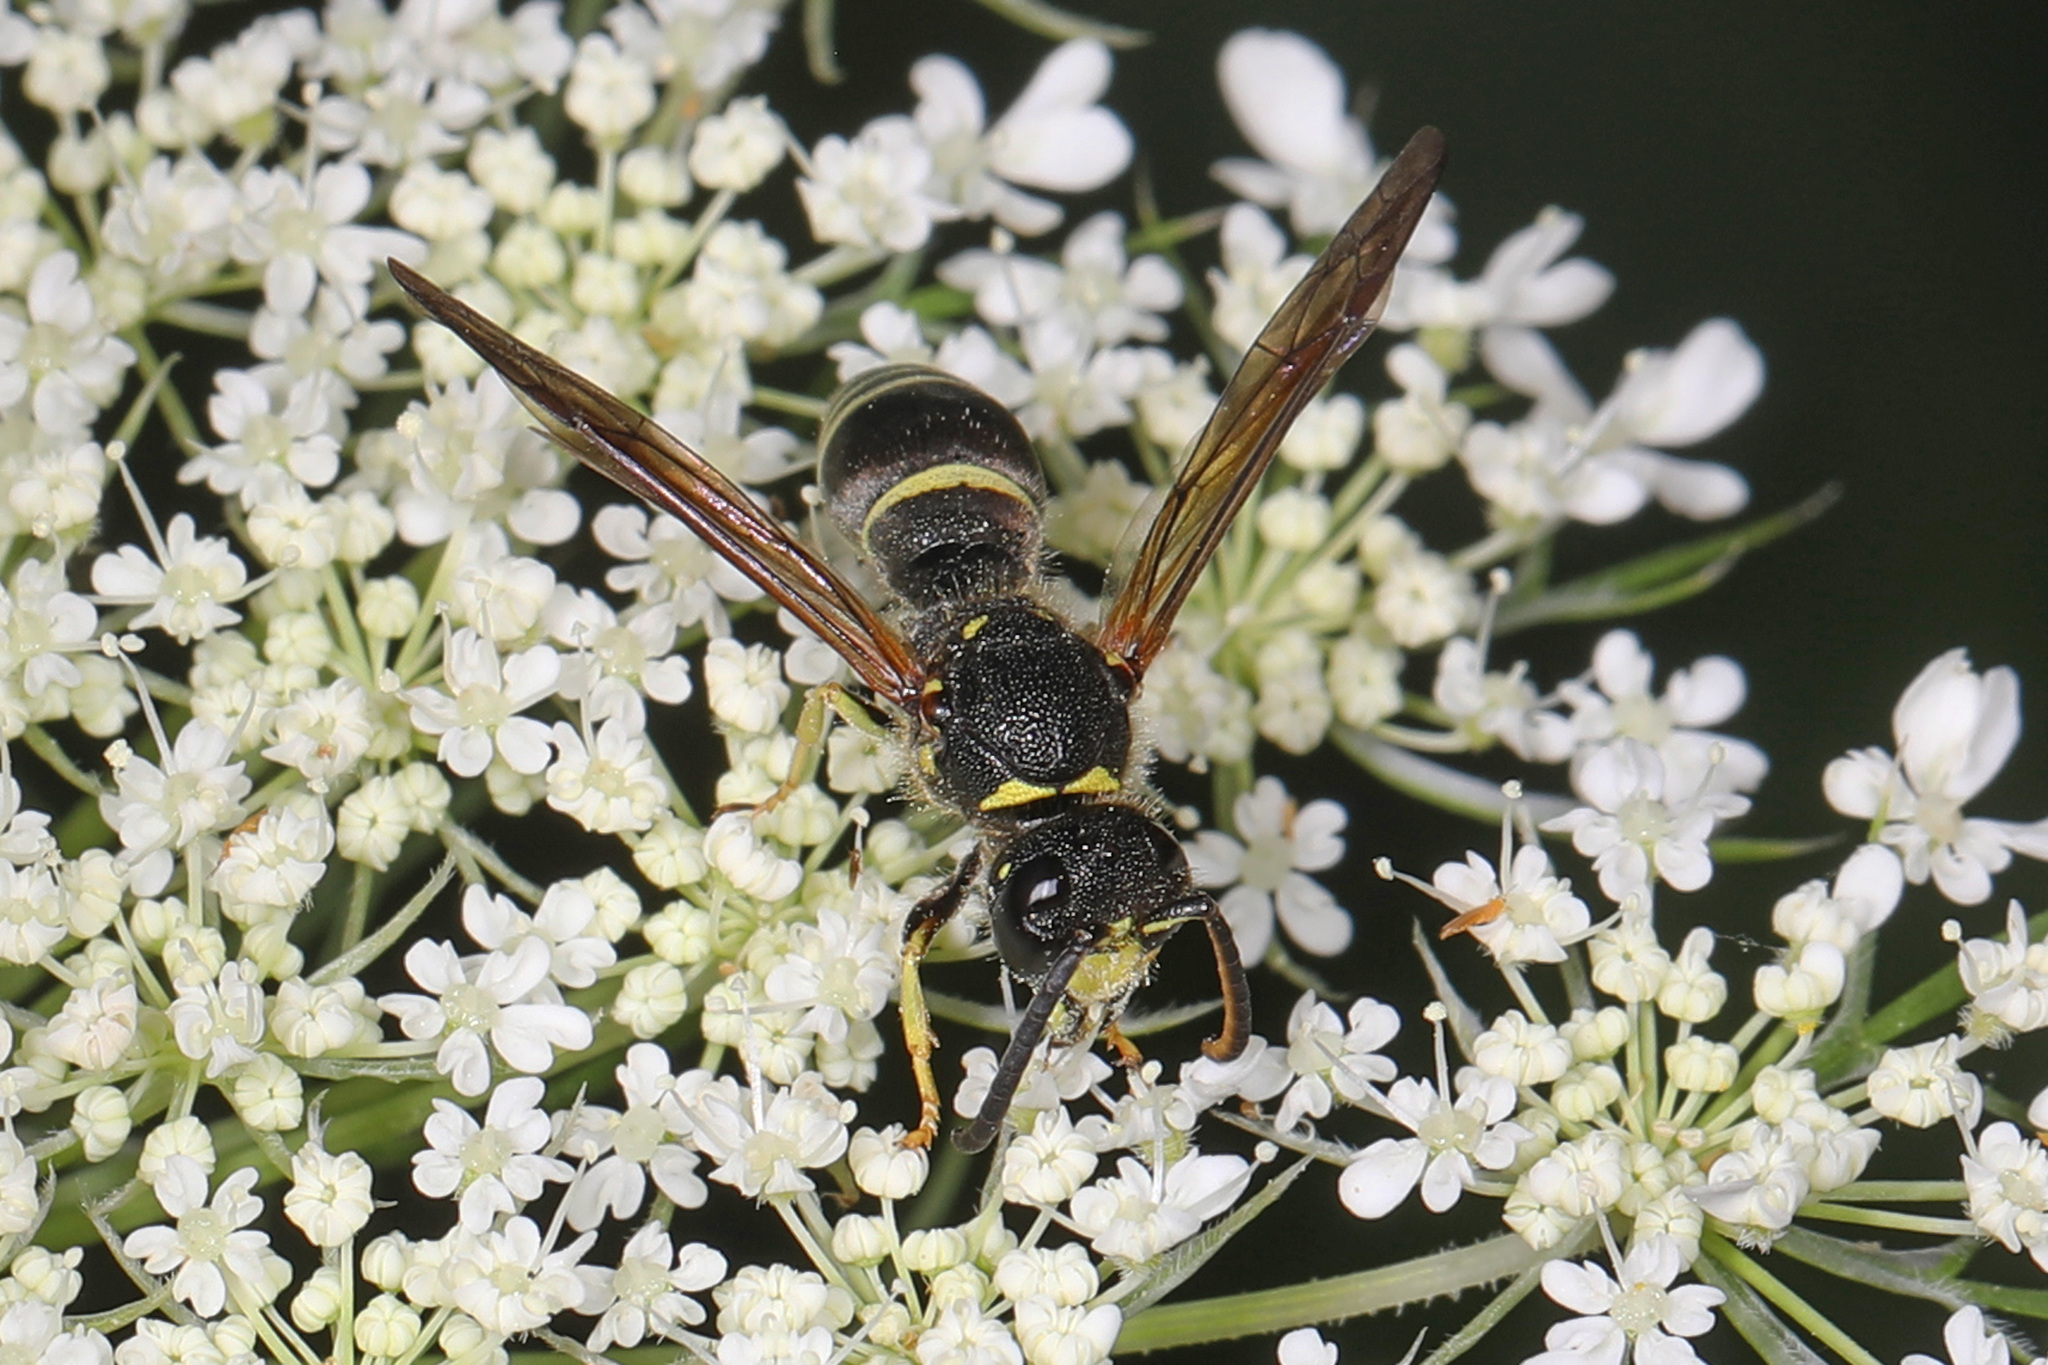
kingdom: Animalia
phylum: Arthropoda
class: Insecta
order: Hymenoptera
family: Vespidae
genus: Ancistrocerus
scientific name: Ancistrocerus
